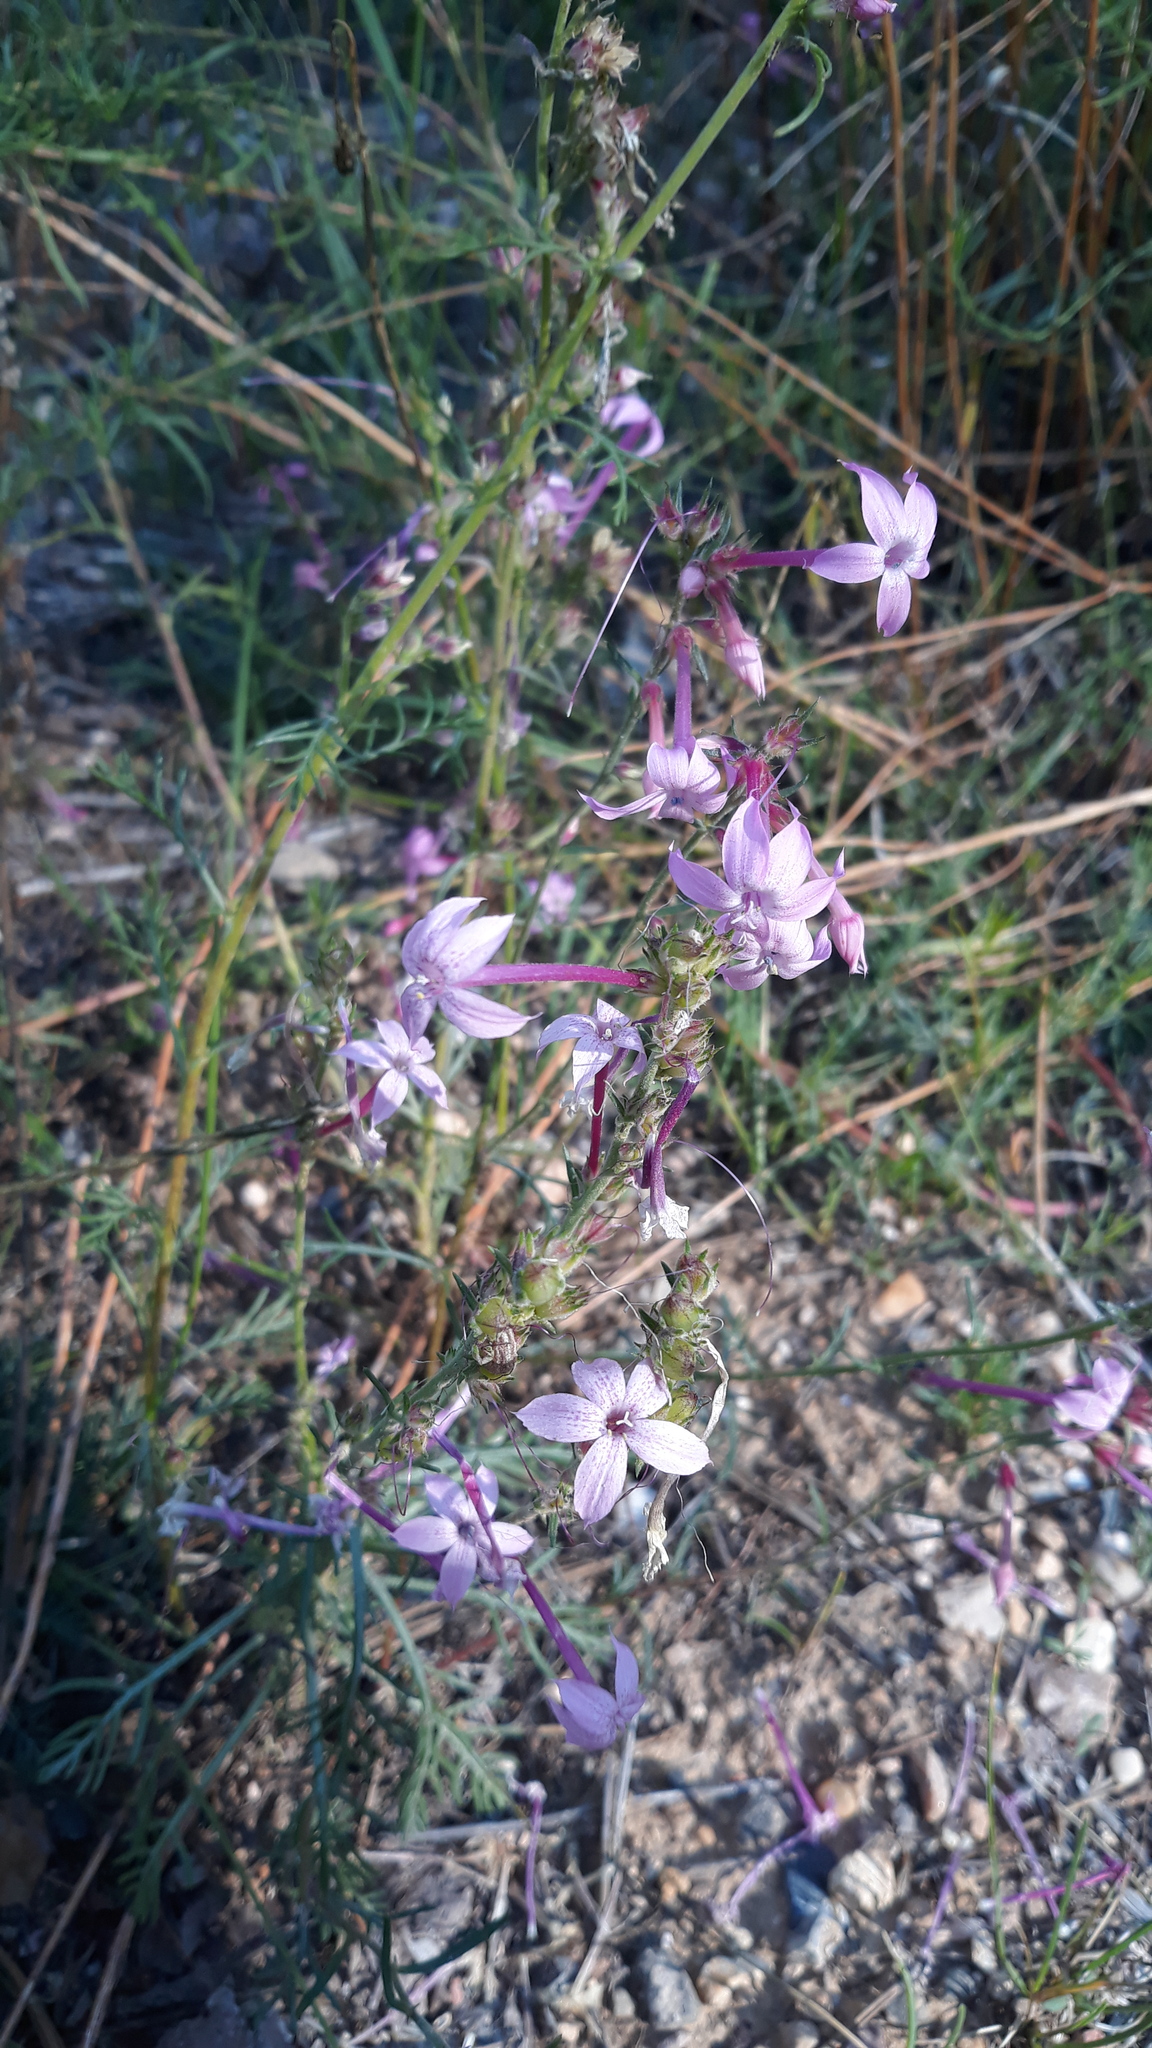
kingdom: Plantae
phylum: Tracheophyta
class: Magnoliopsida
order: Ericales
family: Polemoniaceae
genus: Ipomopsis
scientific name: Ipomopsis tenuituba
